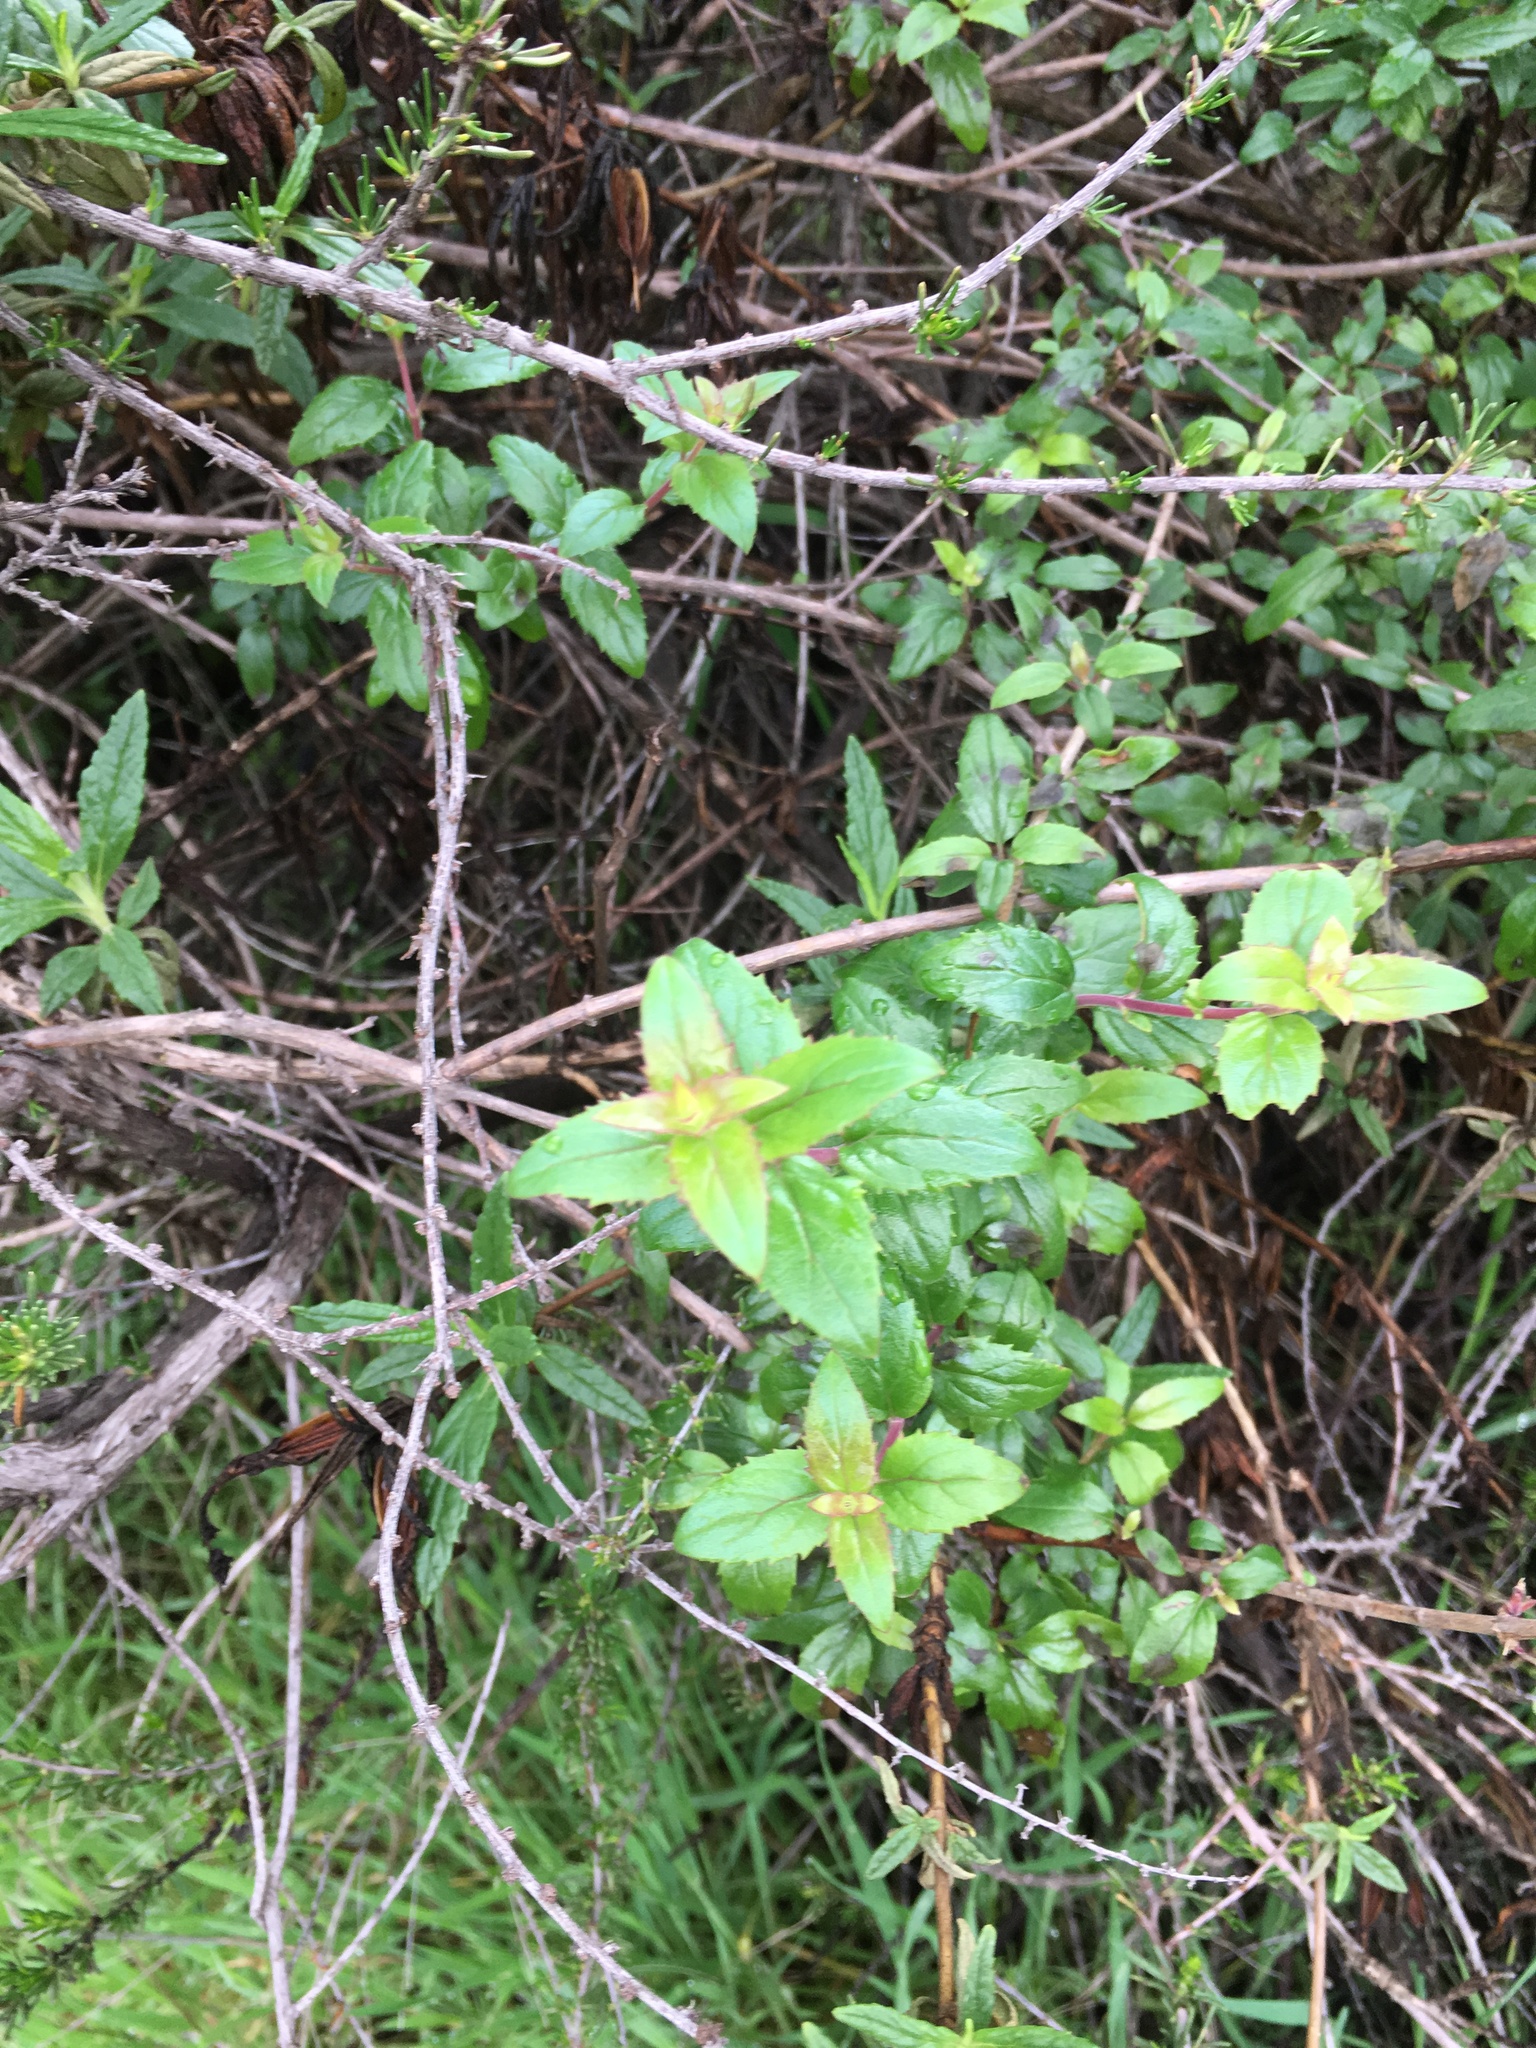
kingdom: Plantae
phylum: Tracheophyta
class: Magnoliopsida
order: Lamiales
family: Plantaginaceae
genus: Keckiella
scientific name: Keckiella cordifolia
